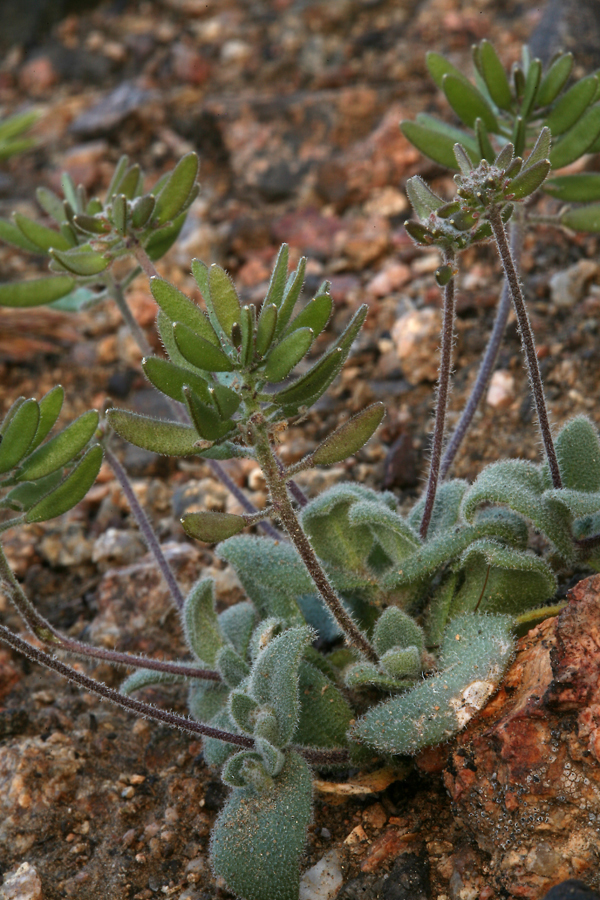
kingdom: Plantae
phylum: Tracheophyta
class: Magnoliopsida
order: Brassicales
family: Brassicaceae
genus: Tomostima
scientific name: Tomostima cuneifolia
